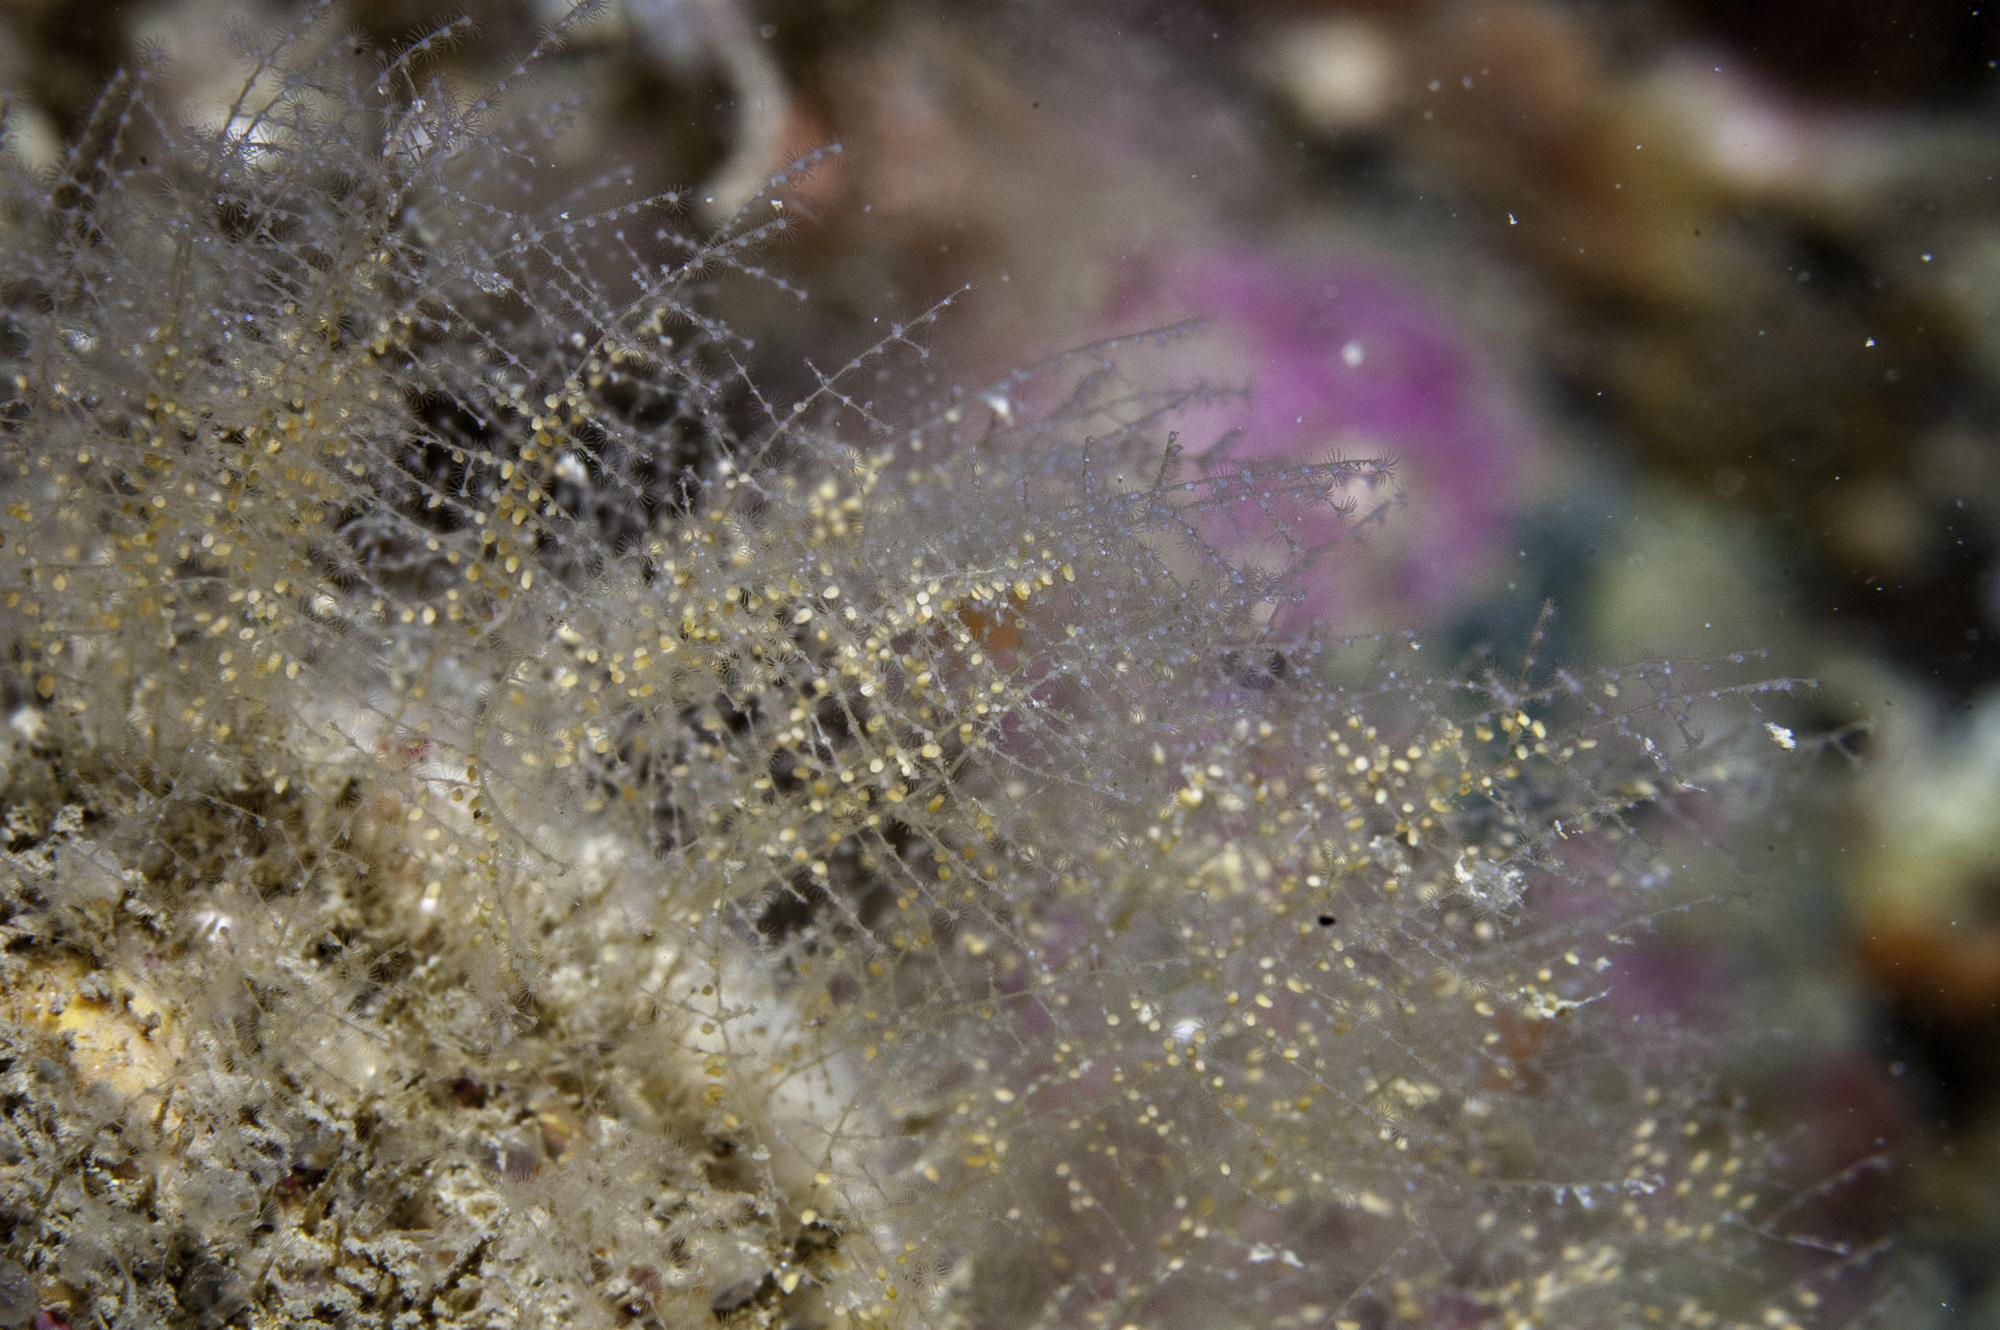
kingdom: Animalia
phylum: Cnidaria
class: Hydrozoa
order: Leptothecata
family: Halopterididae
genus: Halopteris
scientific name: Halopteris catharina
